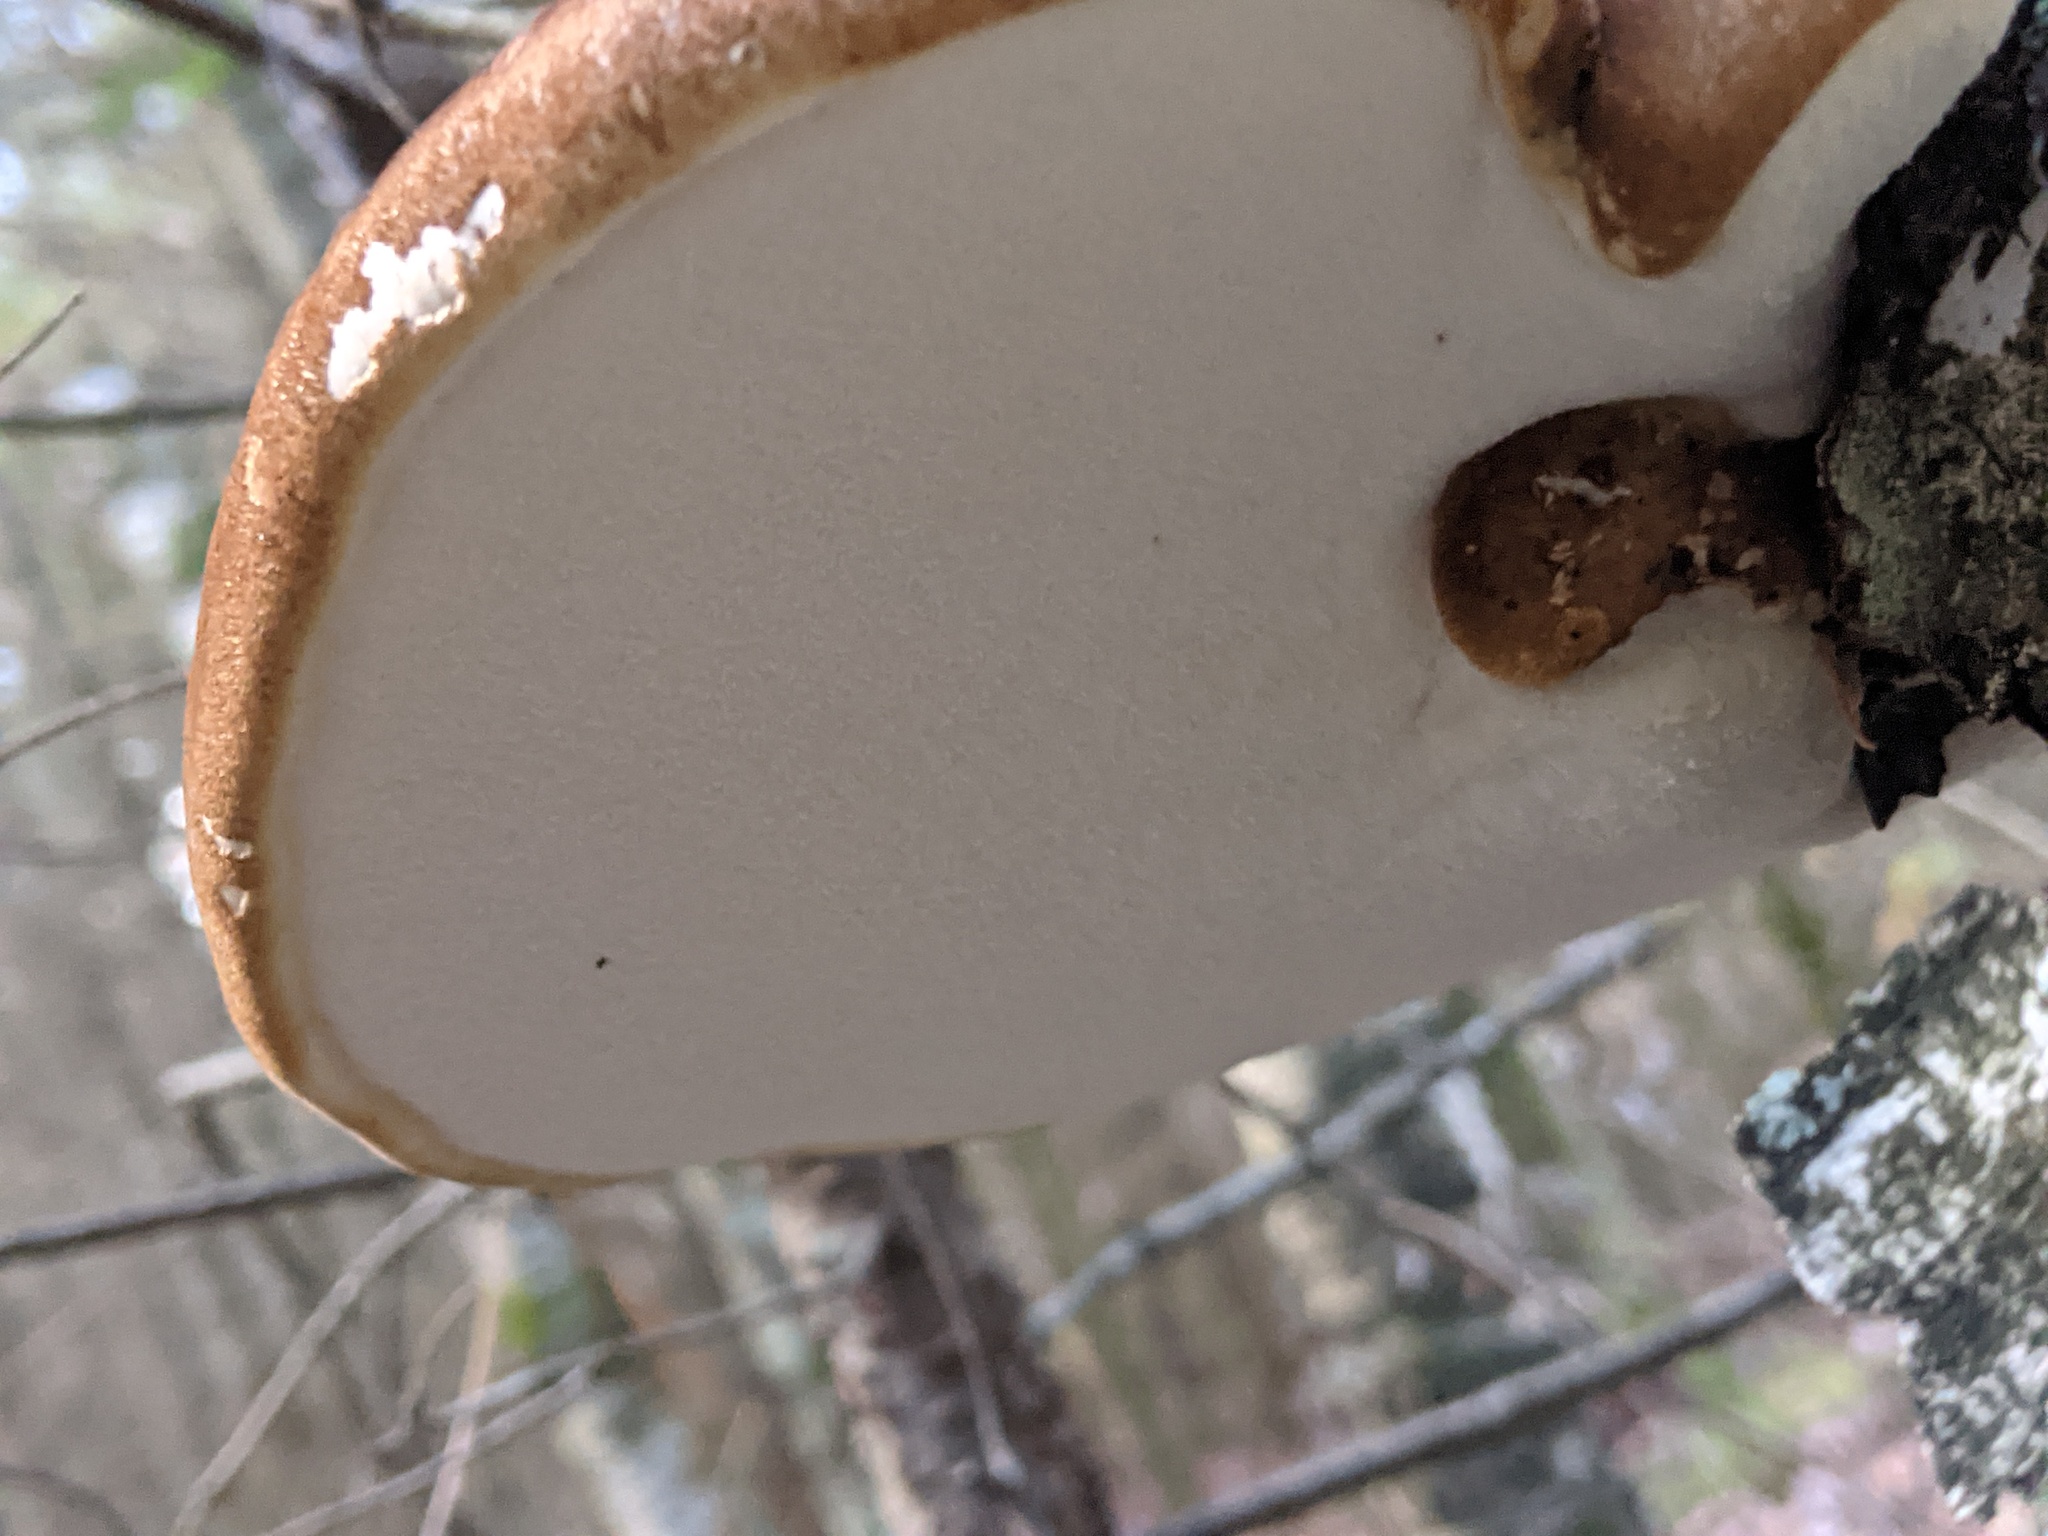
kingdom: Fungi
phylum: Basidiomycota
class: Agaricomycetes
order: Polyporales
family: Fomitopsidaceae
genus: Fomitopsis
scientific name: Fomitopsis betulina
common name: Birch polypore
